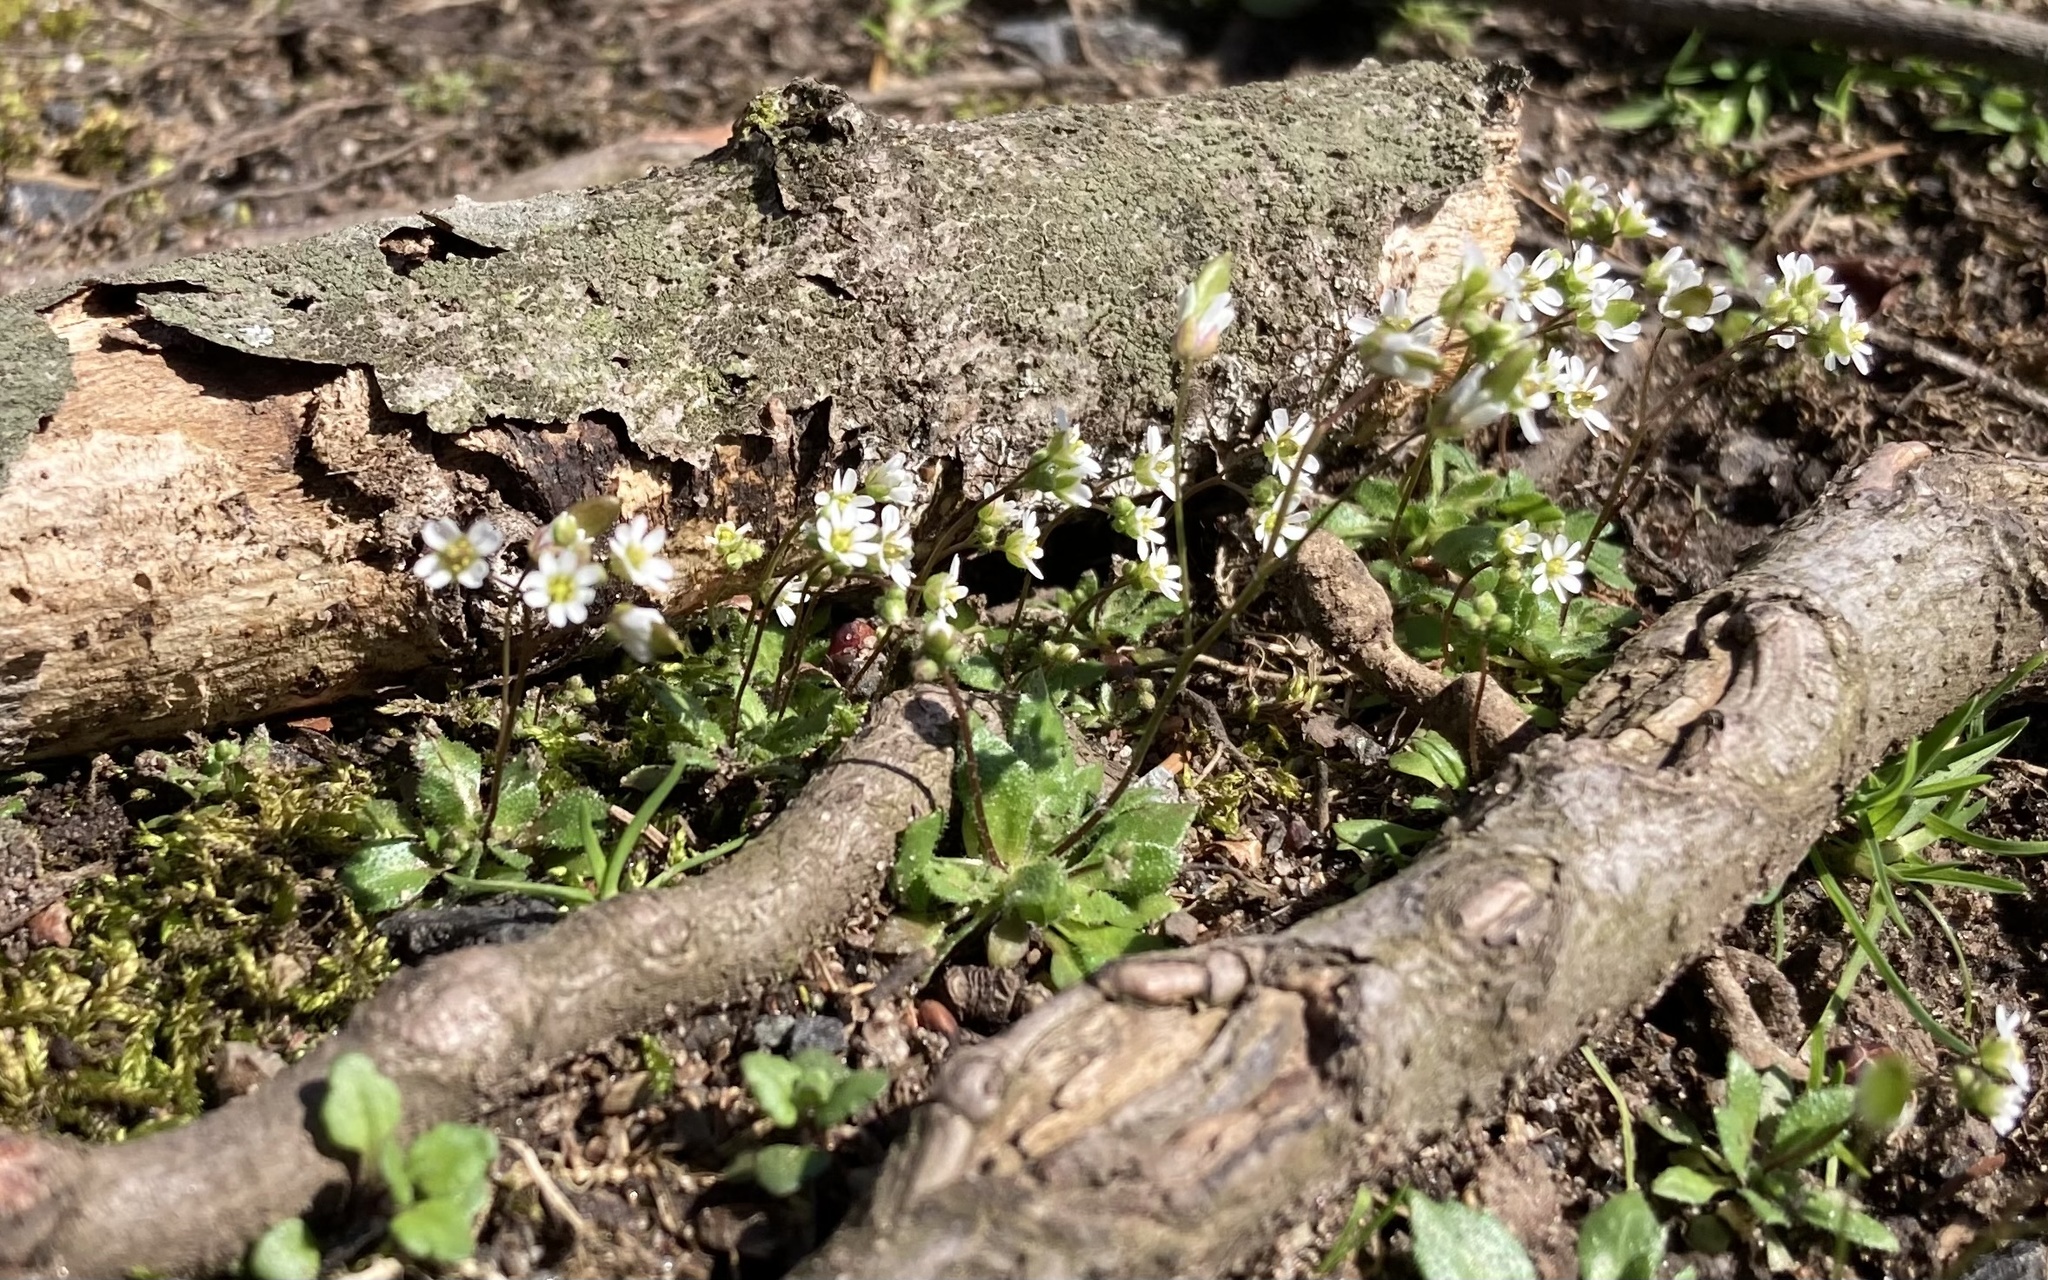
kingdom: Plantae
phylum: Tracheophyta
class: Magnoliopsida
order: Brassicales
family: Brassicaceae
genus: Draba
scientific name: Draba verna
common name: Spring draba
